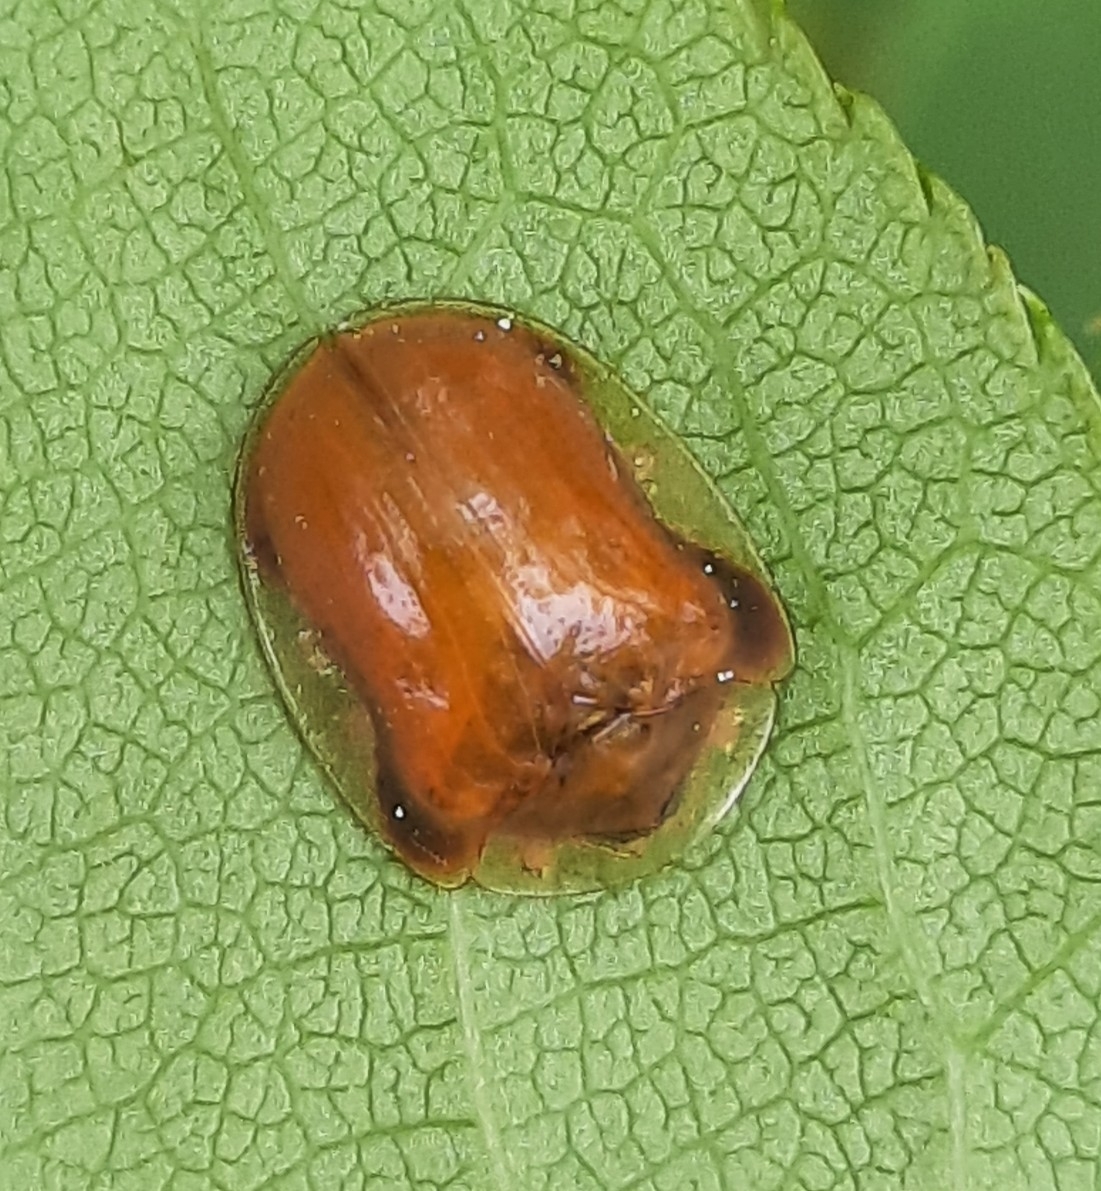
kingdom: Animalia
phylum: Arthropoda
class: Insecta
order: Coleoptera
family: Chrysomelidae
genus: Charidotella
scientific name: Charidotella purpurata
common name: Small orange tortoise beetle
